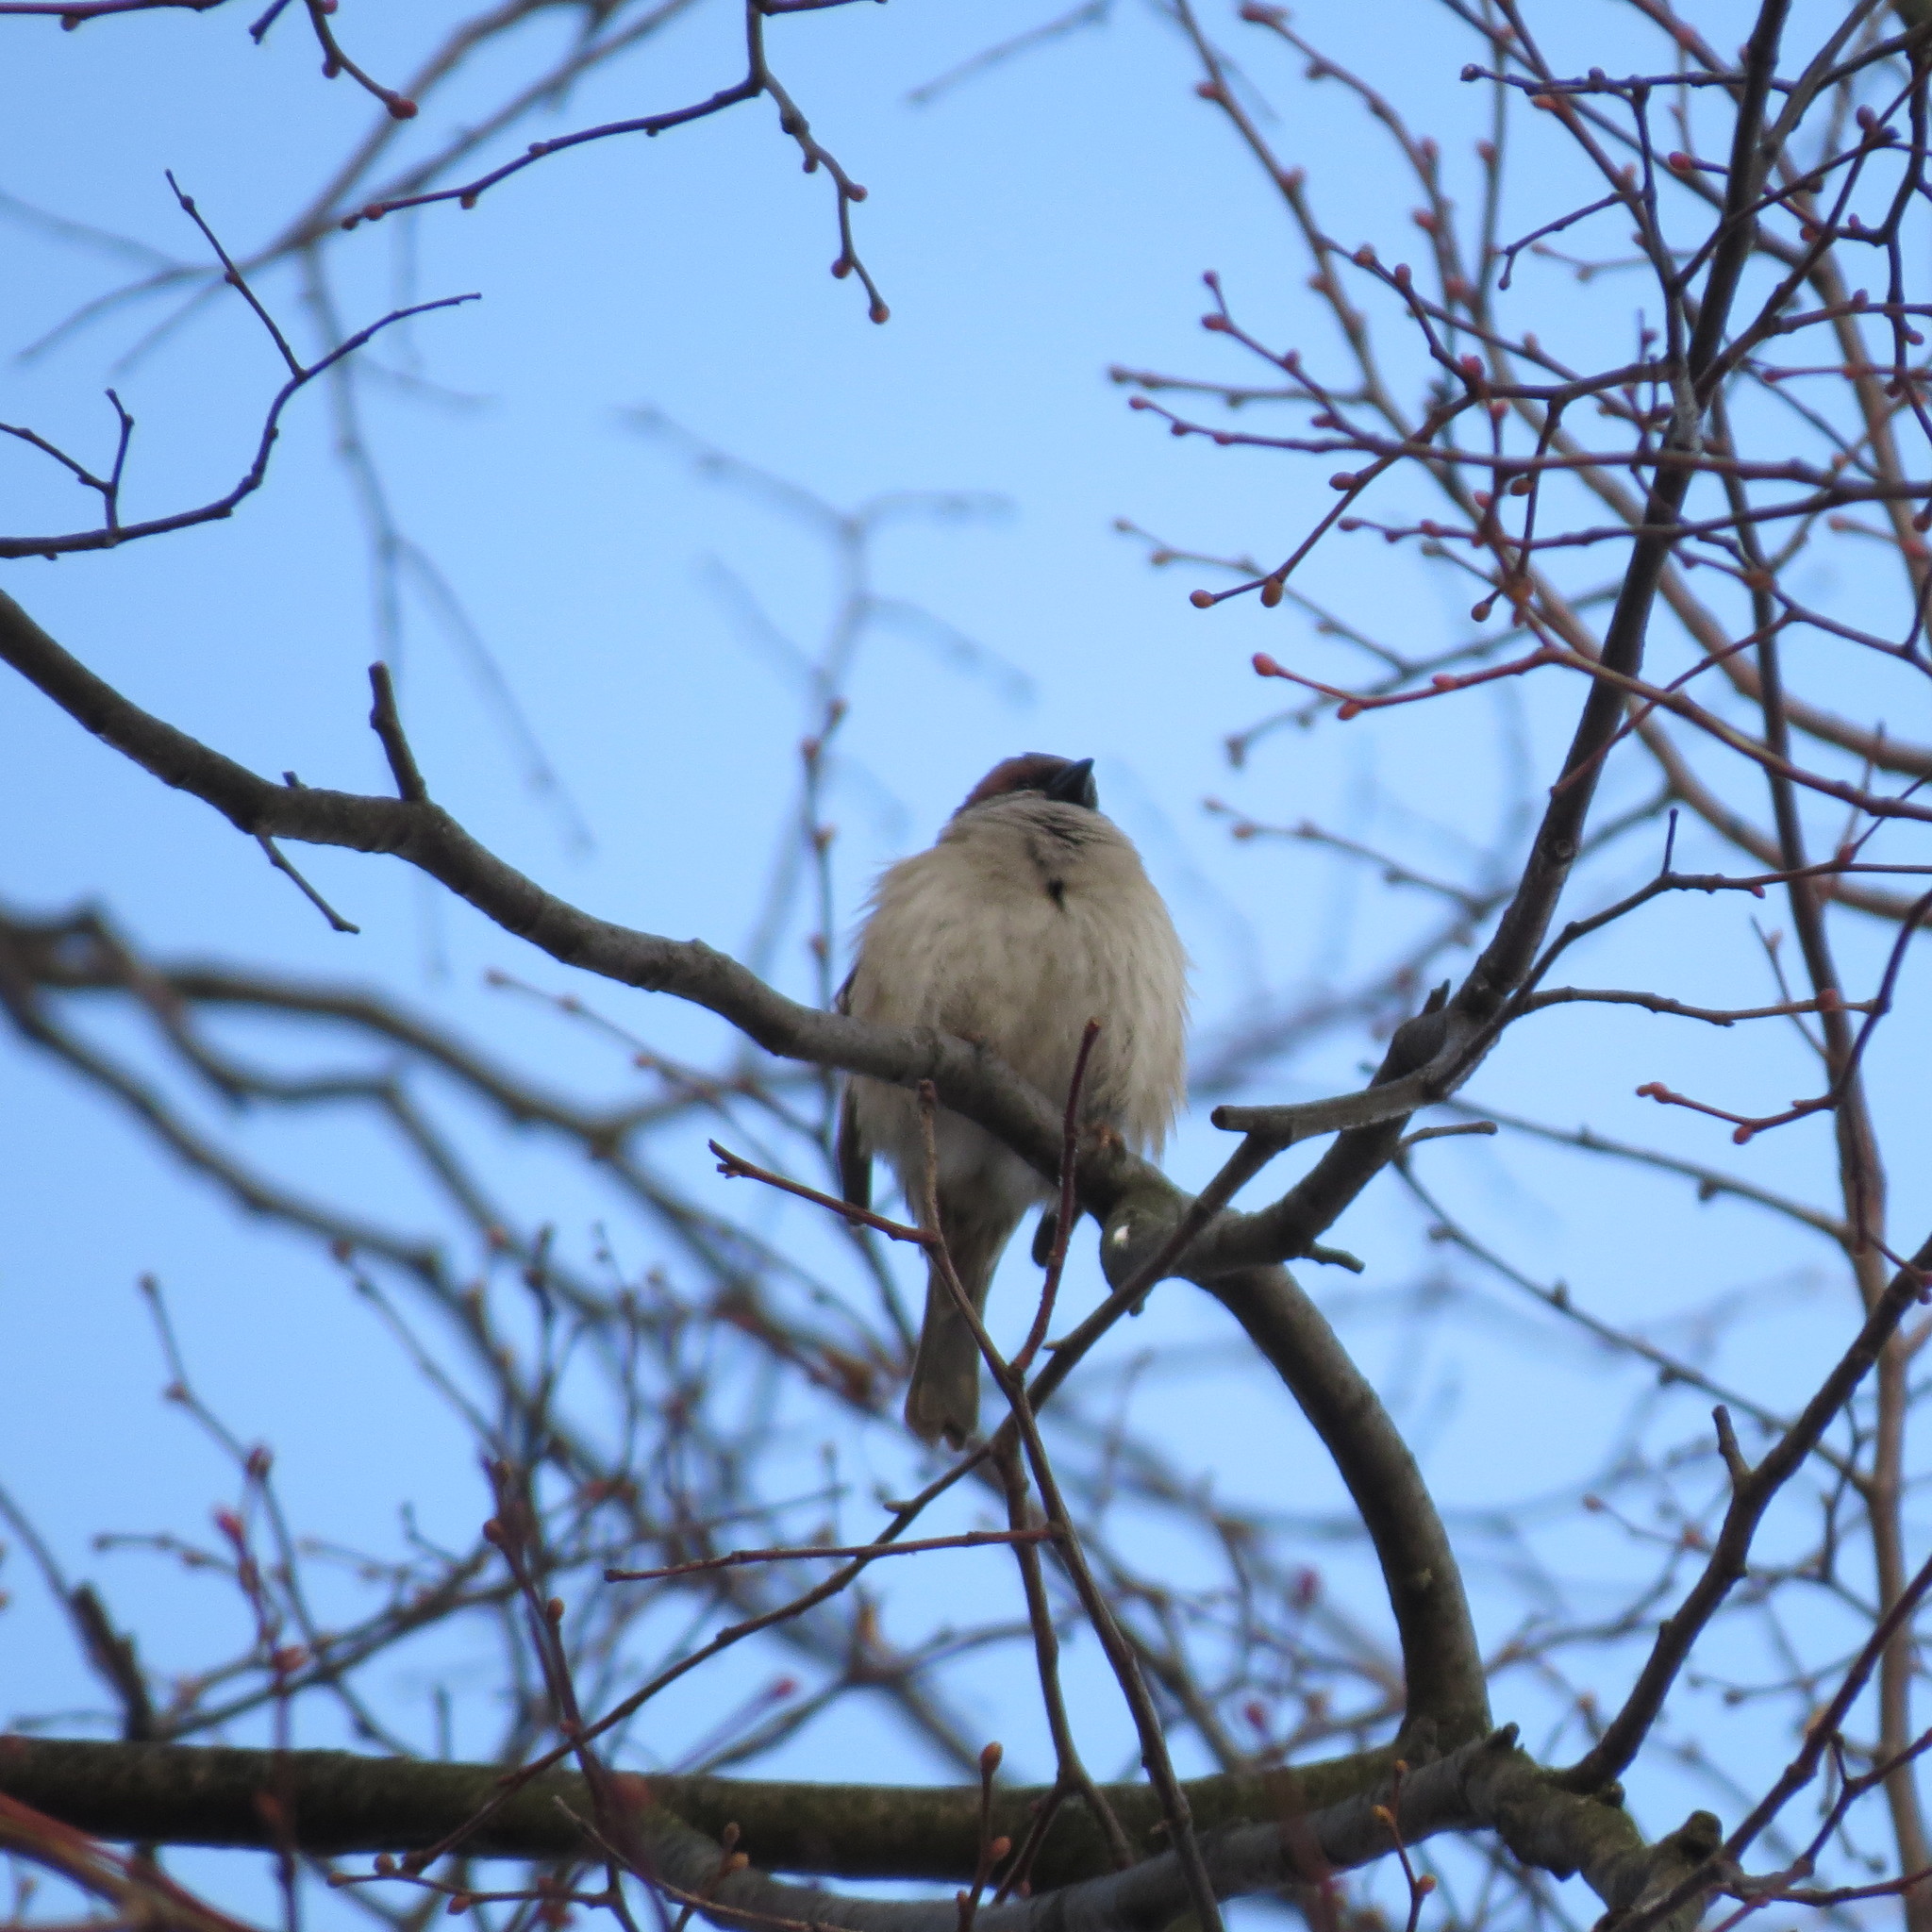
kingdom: Animalia
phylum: Chordata
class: Aves
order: Passeriformes
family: Passeridae
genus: Passer
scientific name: Passer montanus
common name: Eurasian tree sparrow
